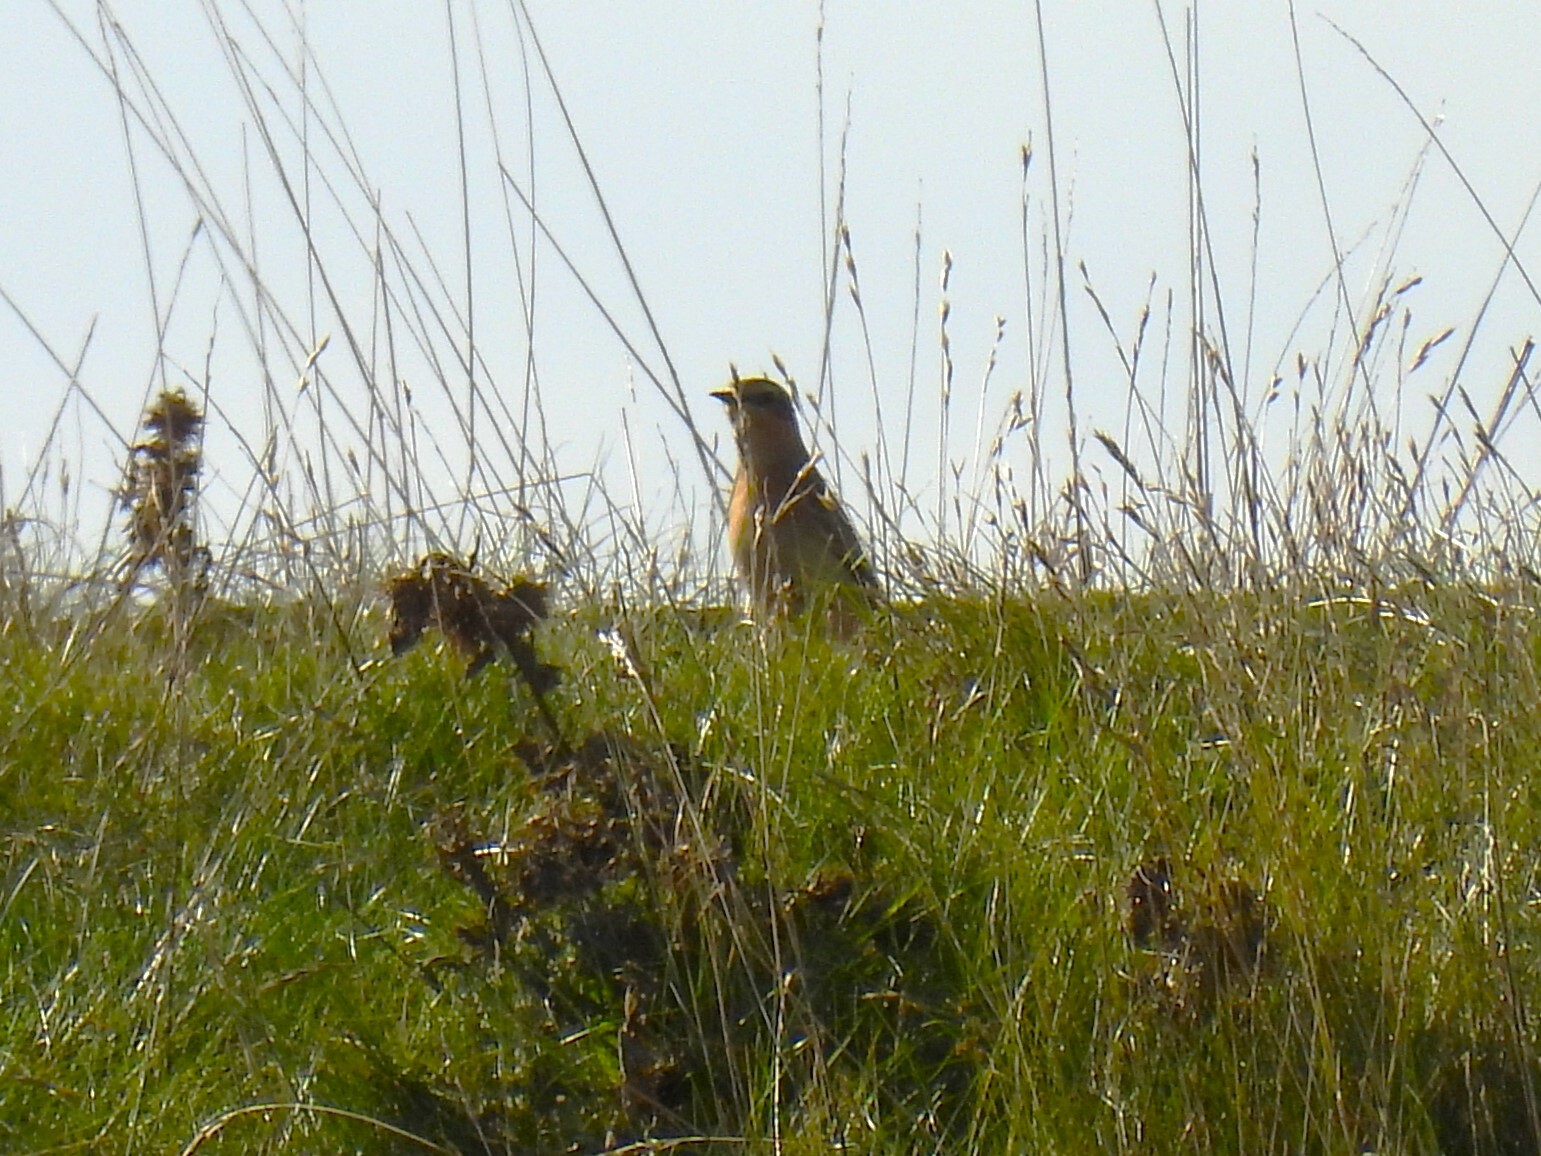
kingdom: Animalia
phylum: Chordata
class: Aves
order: Passeriformes
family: Muscicapidae
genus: Oenanthe
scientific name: Oenanthe oenanthe
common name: Northern wheatear
